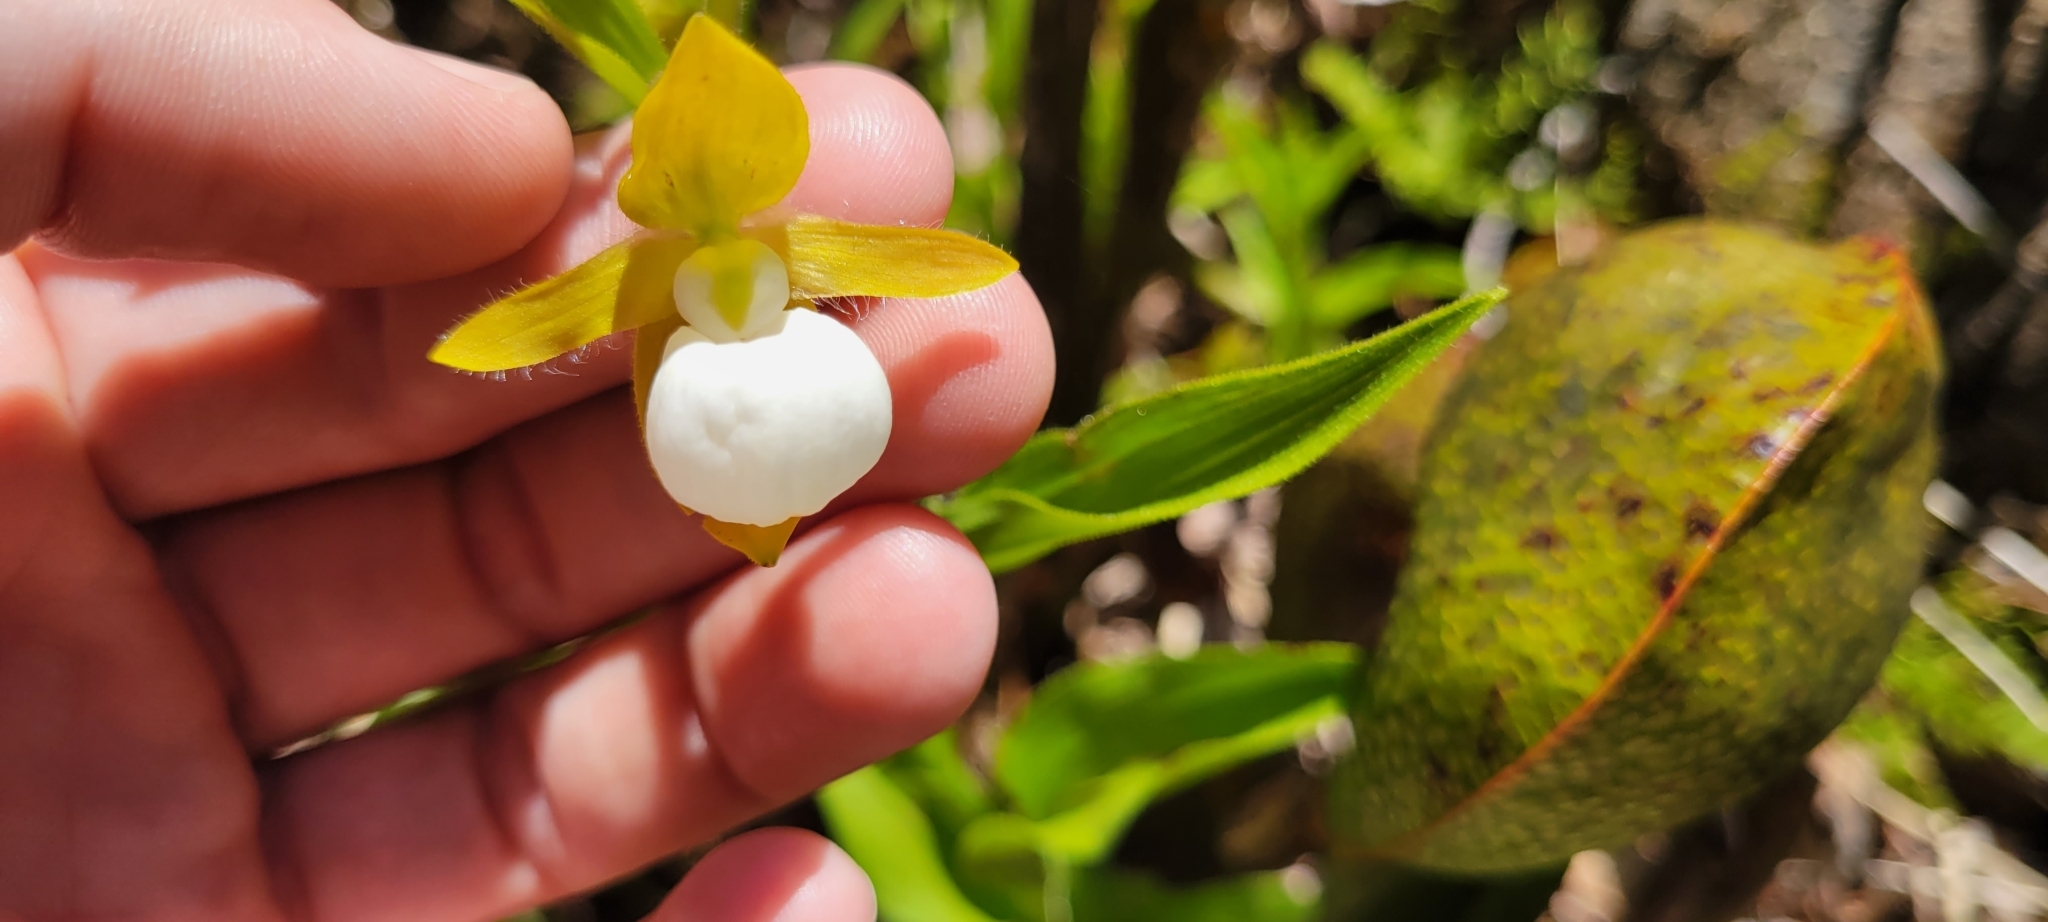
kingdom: Plantae
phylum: Tracheophyta
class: Liliopsida
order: Asparagales
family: Orchidaceae
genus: Cypripedium
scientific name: Cypripedium californicum
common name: California lady's slipper
